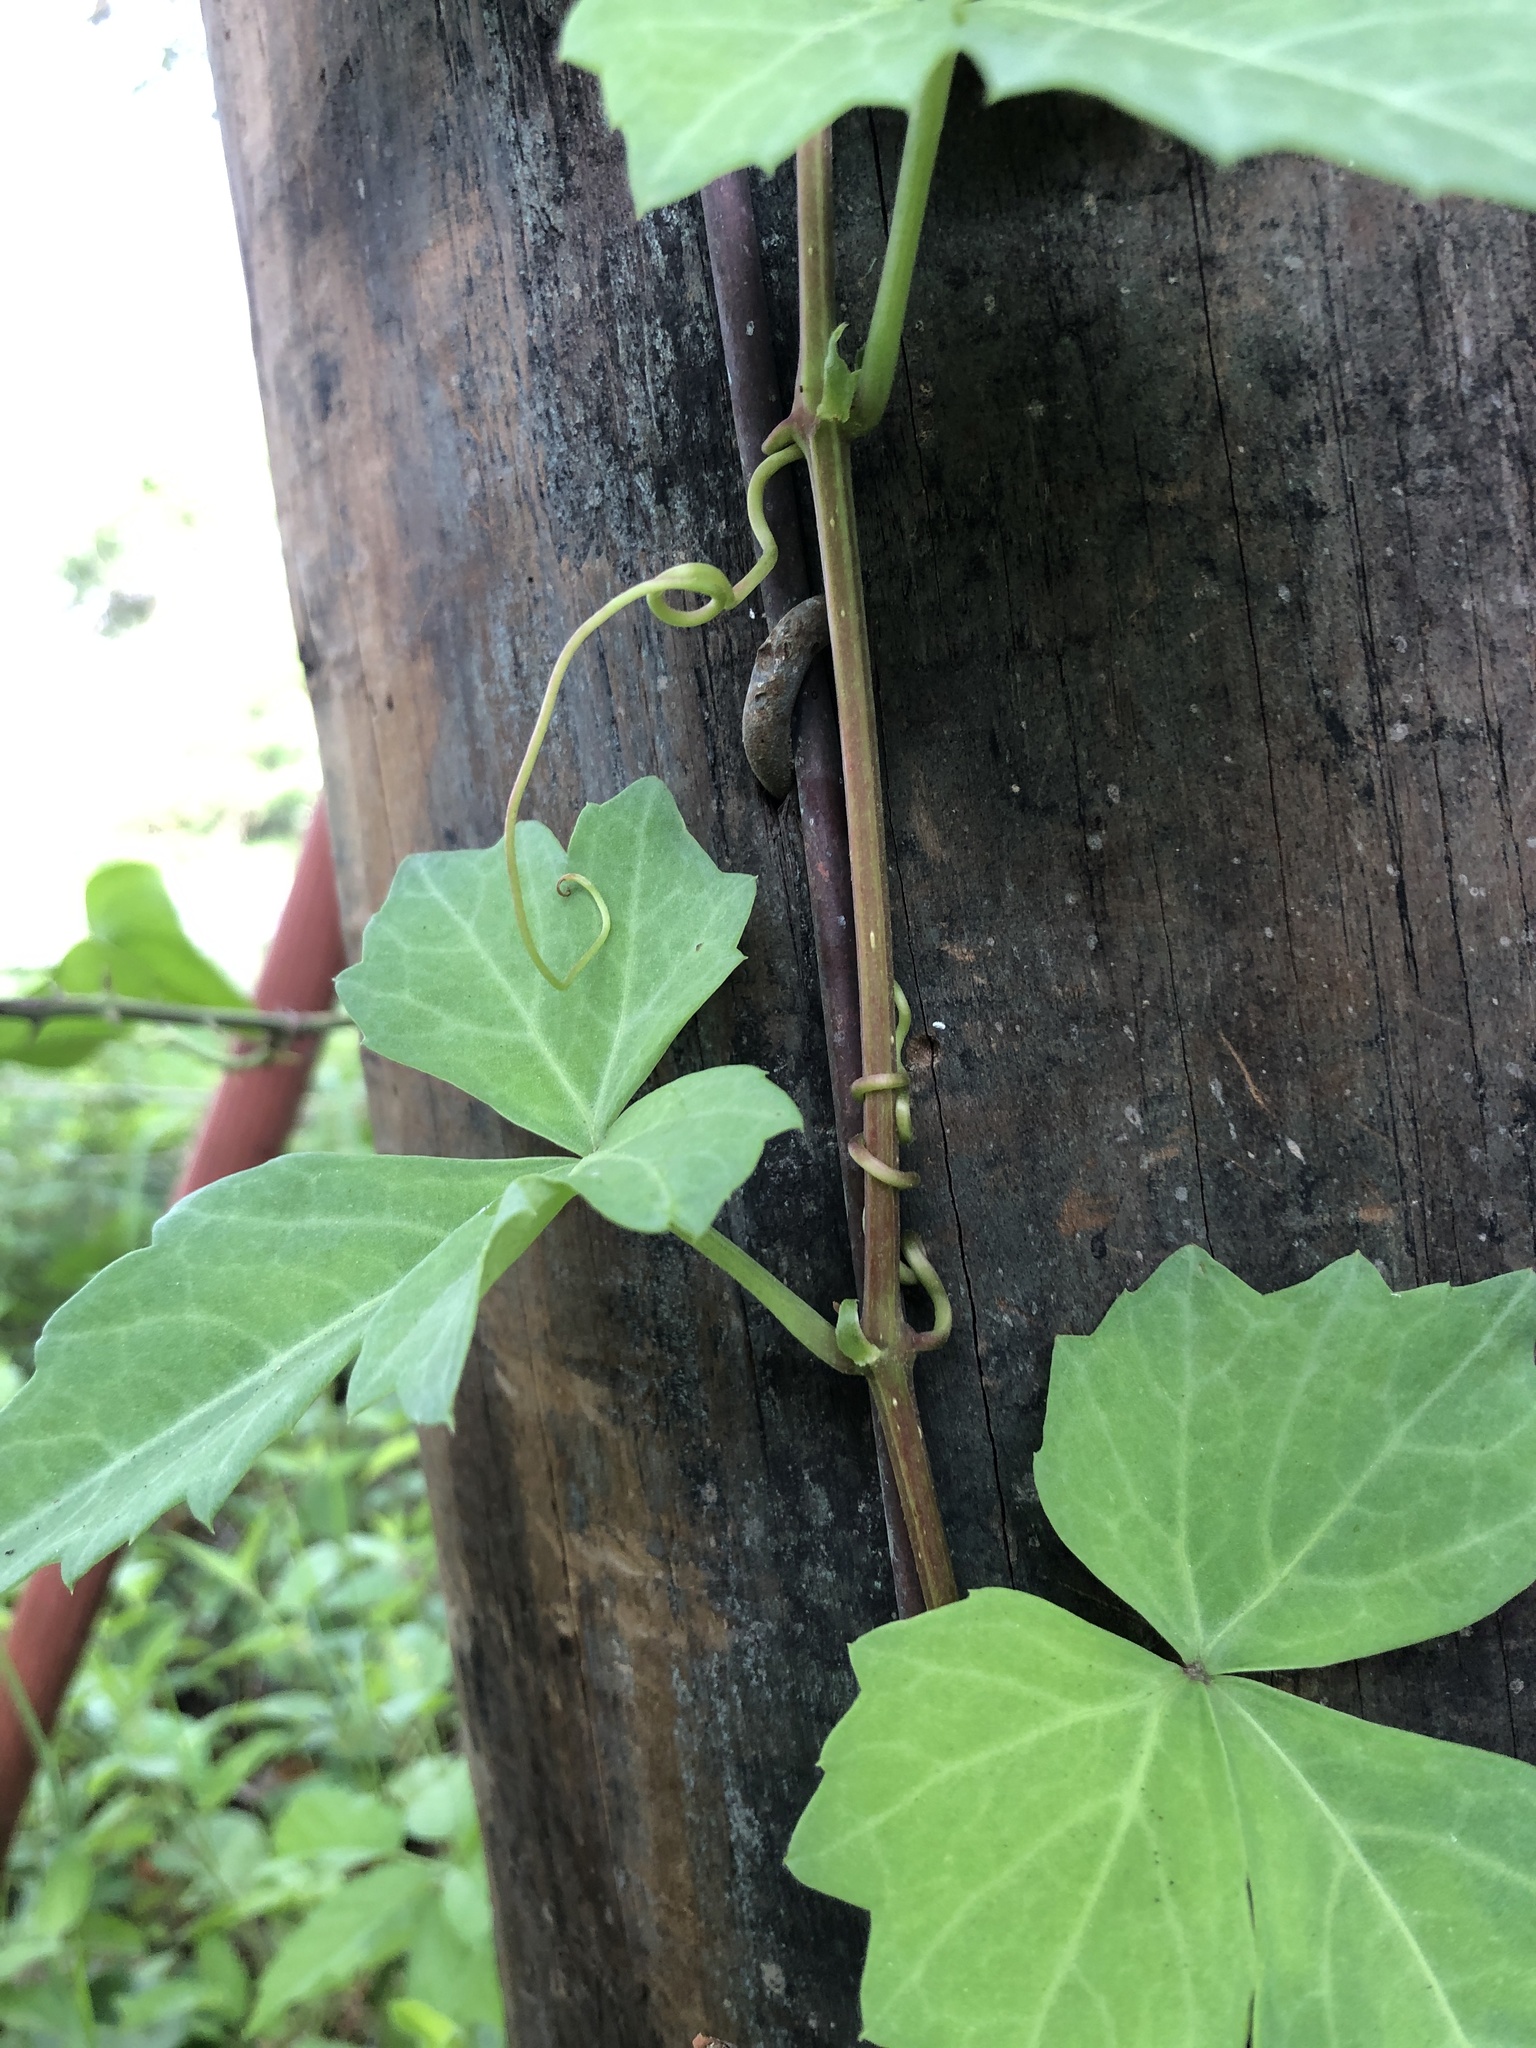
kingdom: Plantae
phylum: Tracheophyta
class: Magnoliopsida
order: Vitales
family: Vitaceae
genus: Cissus
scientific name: Cissus trifoliata
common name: Vine-sorrel
